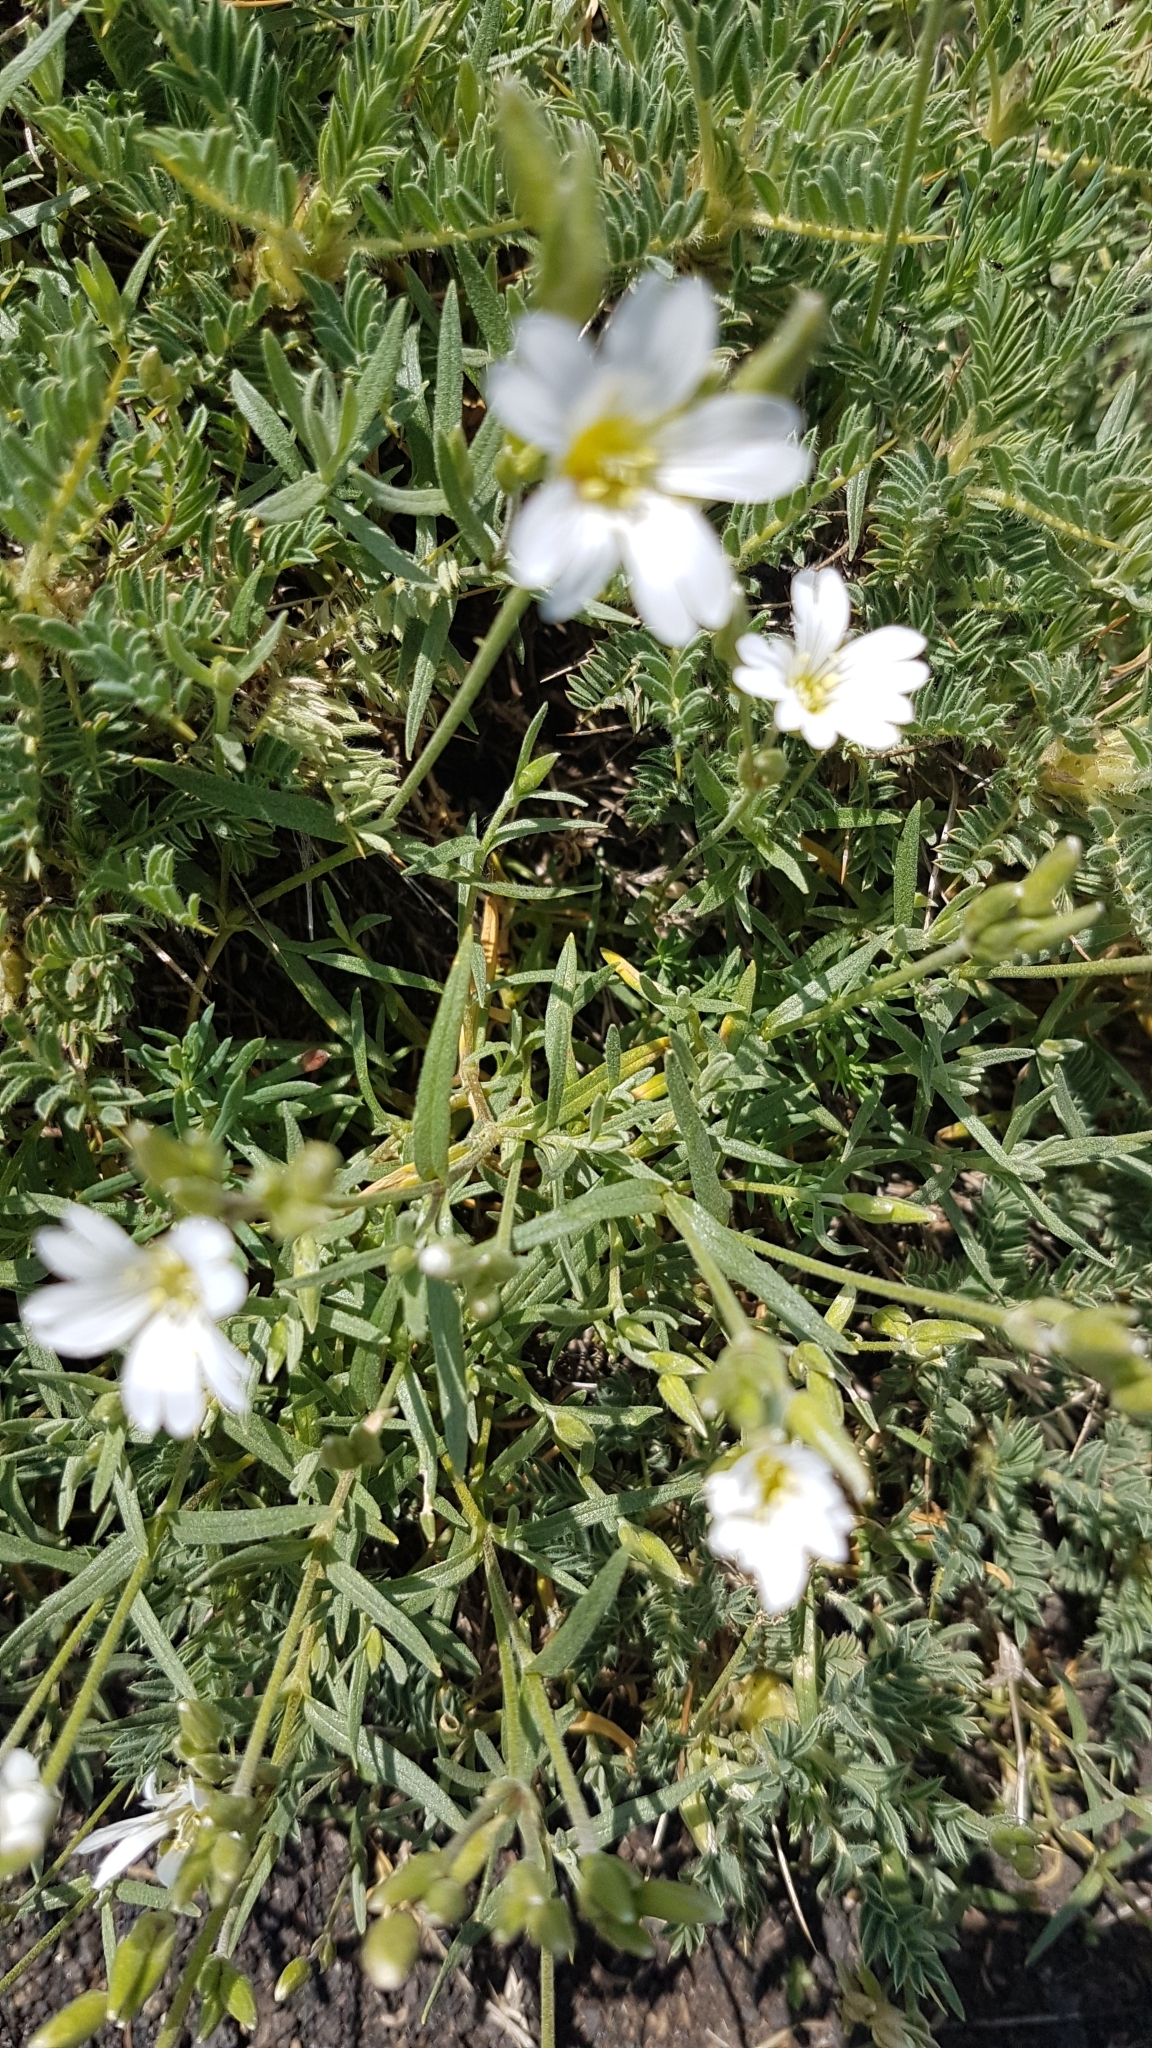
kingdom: Plantae
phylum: Tracheophyta
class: Magnoliopsida
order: Caryophyllales
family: Caryophyllaceae
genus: Cerastium
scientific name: Cerastium tomentosum
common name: Snow-in-summer
